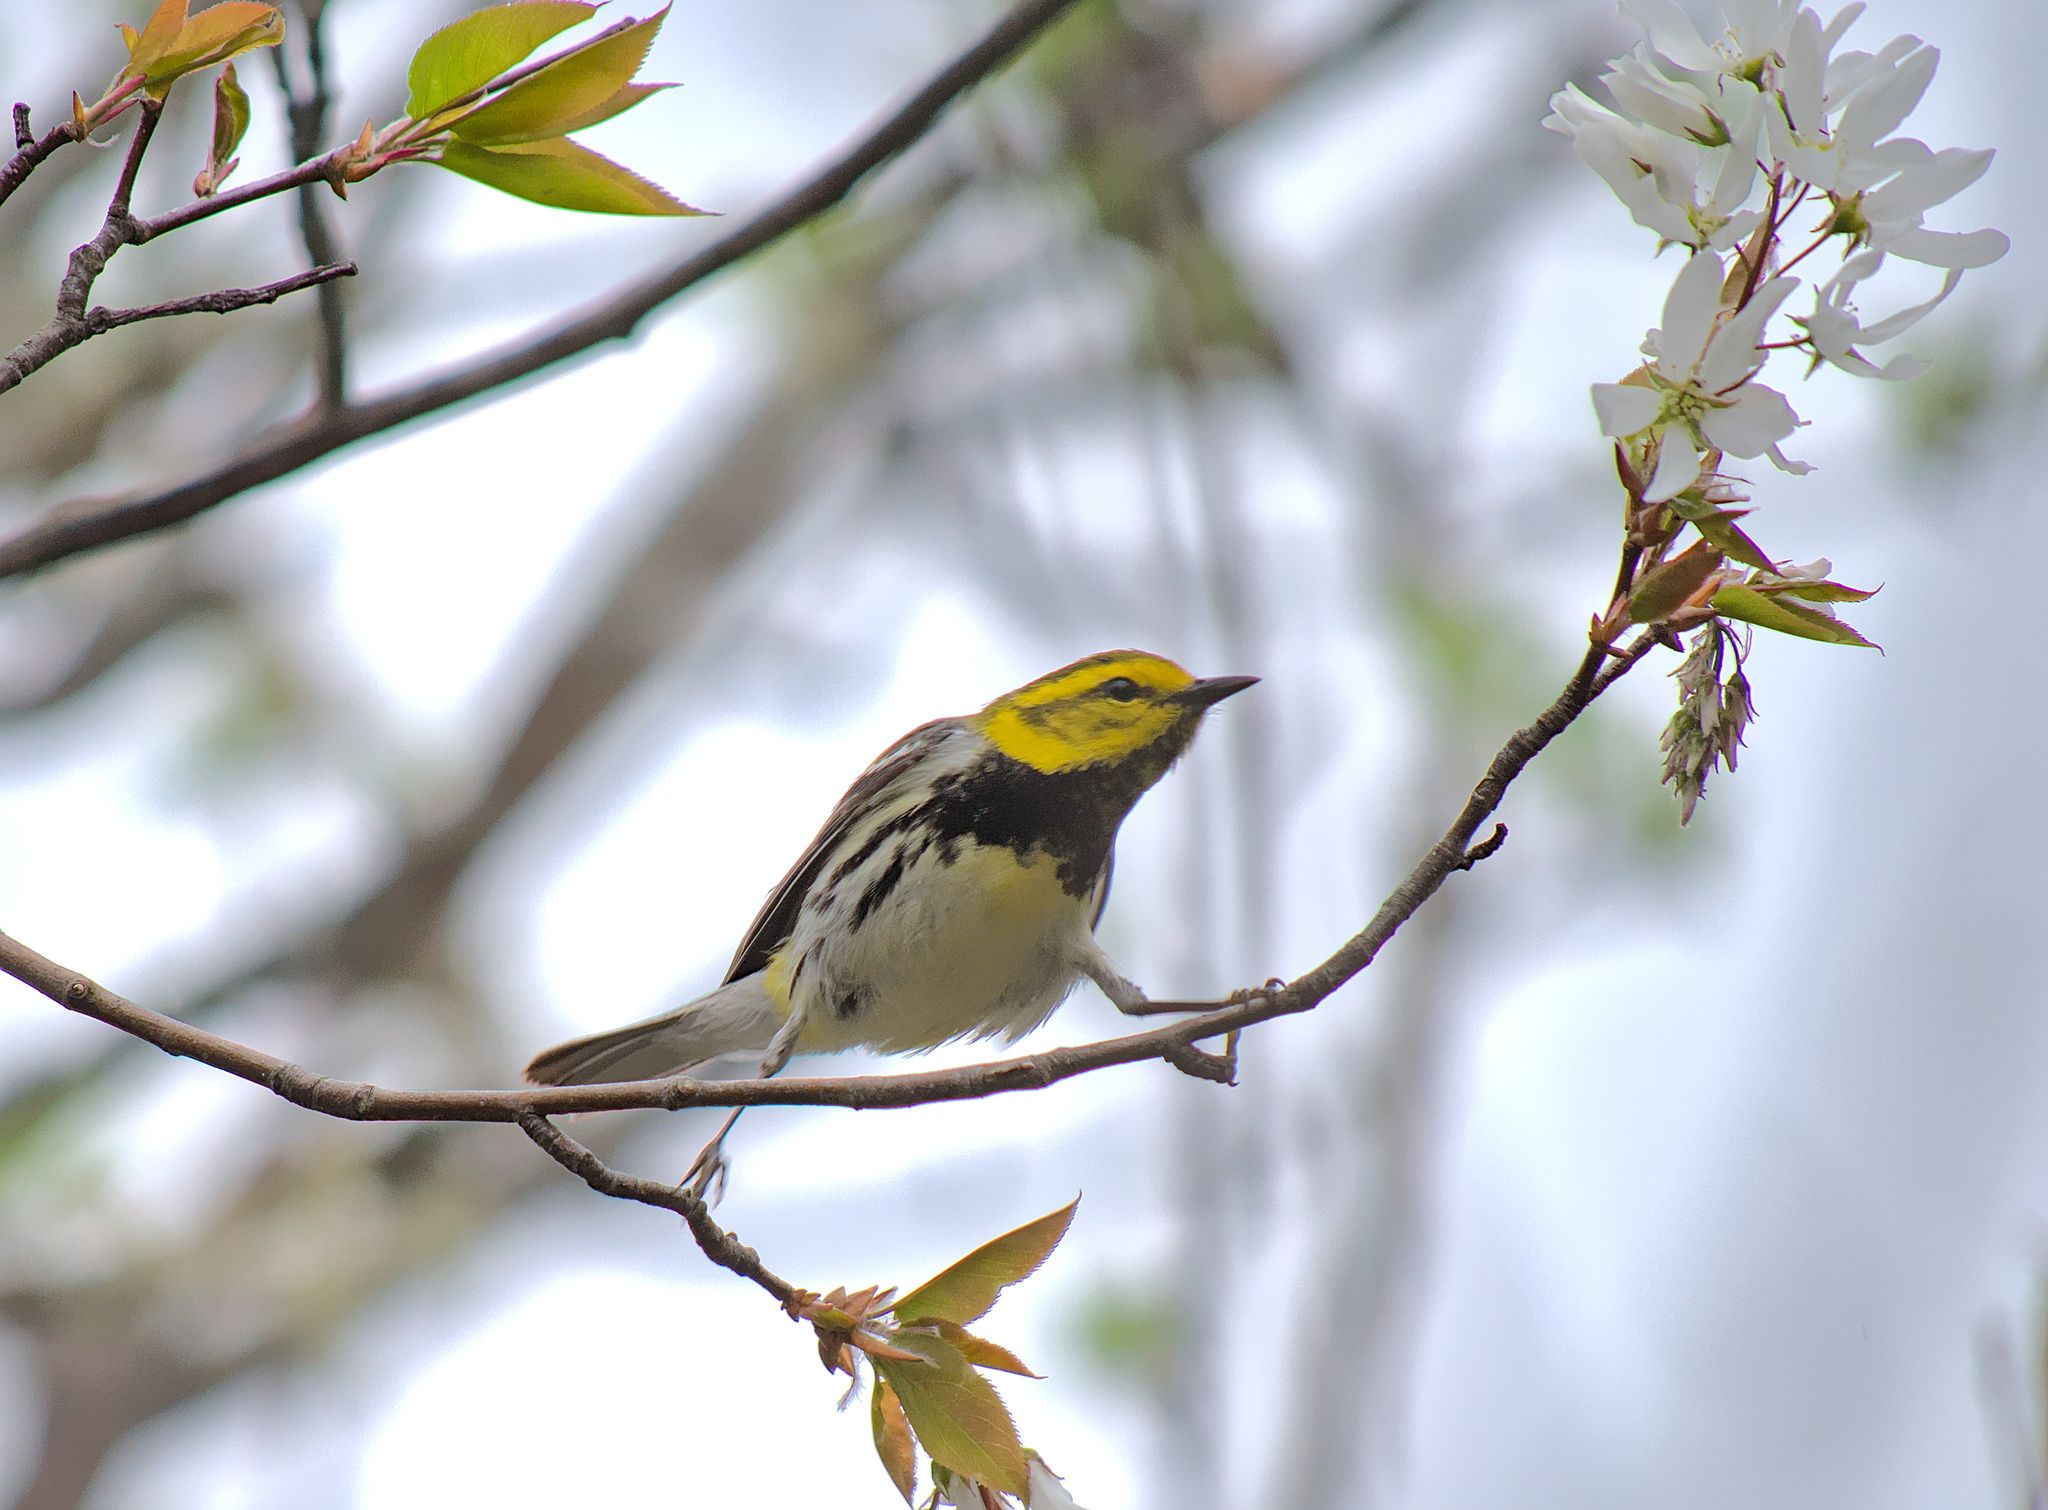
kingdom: Animalia
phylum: Chordata
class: Aves
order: Passeriformes
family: Parulidae
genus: Setophaga
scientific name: Setophaga virens
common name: Black-throated green warbler
